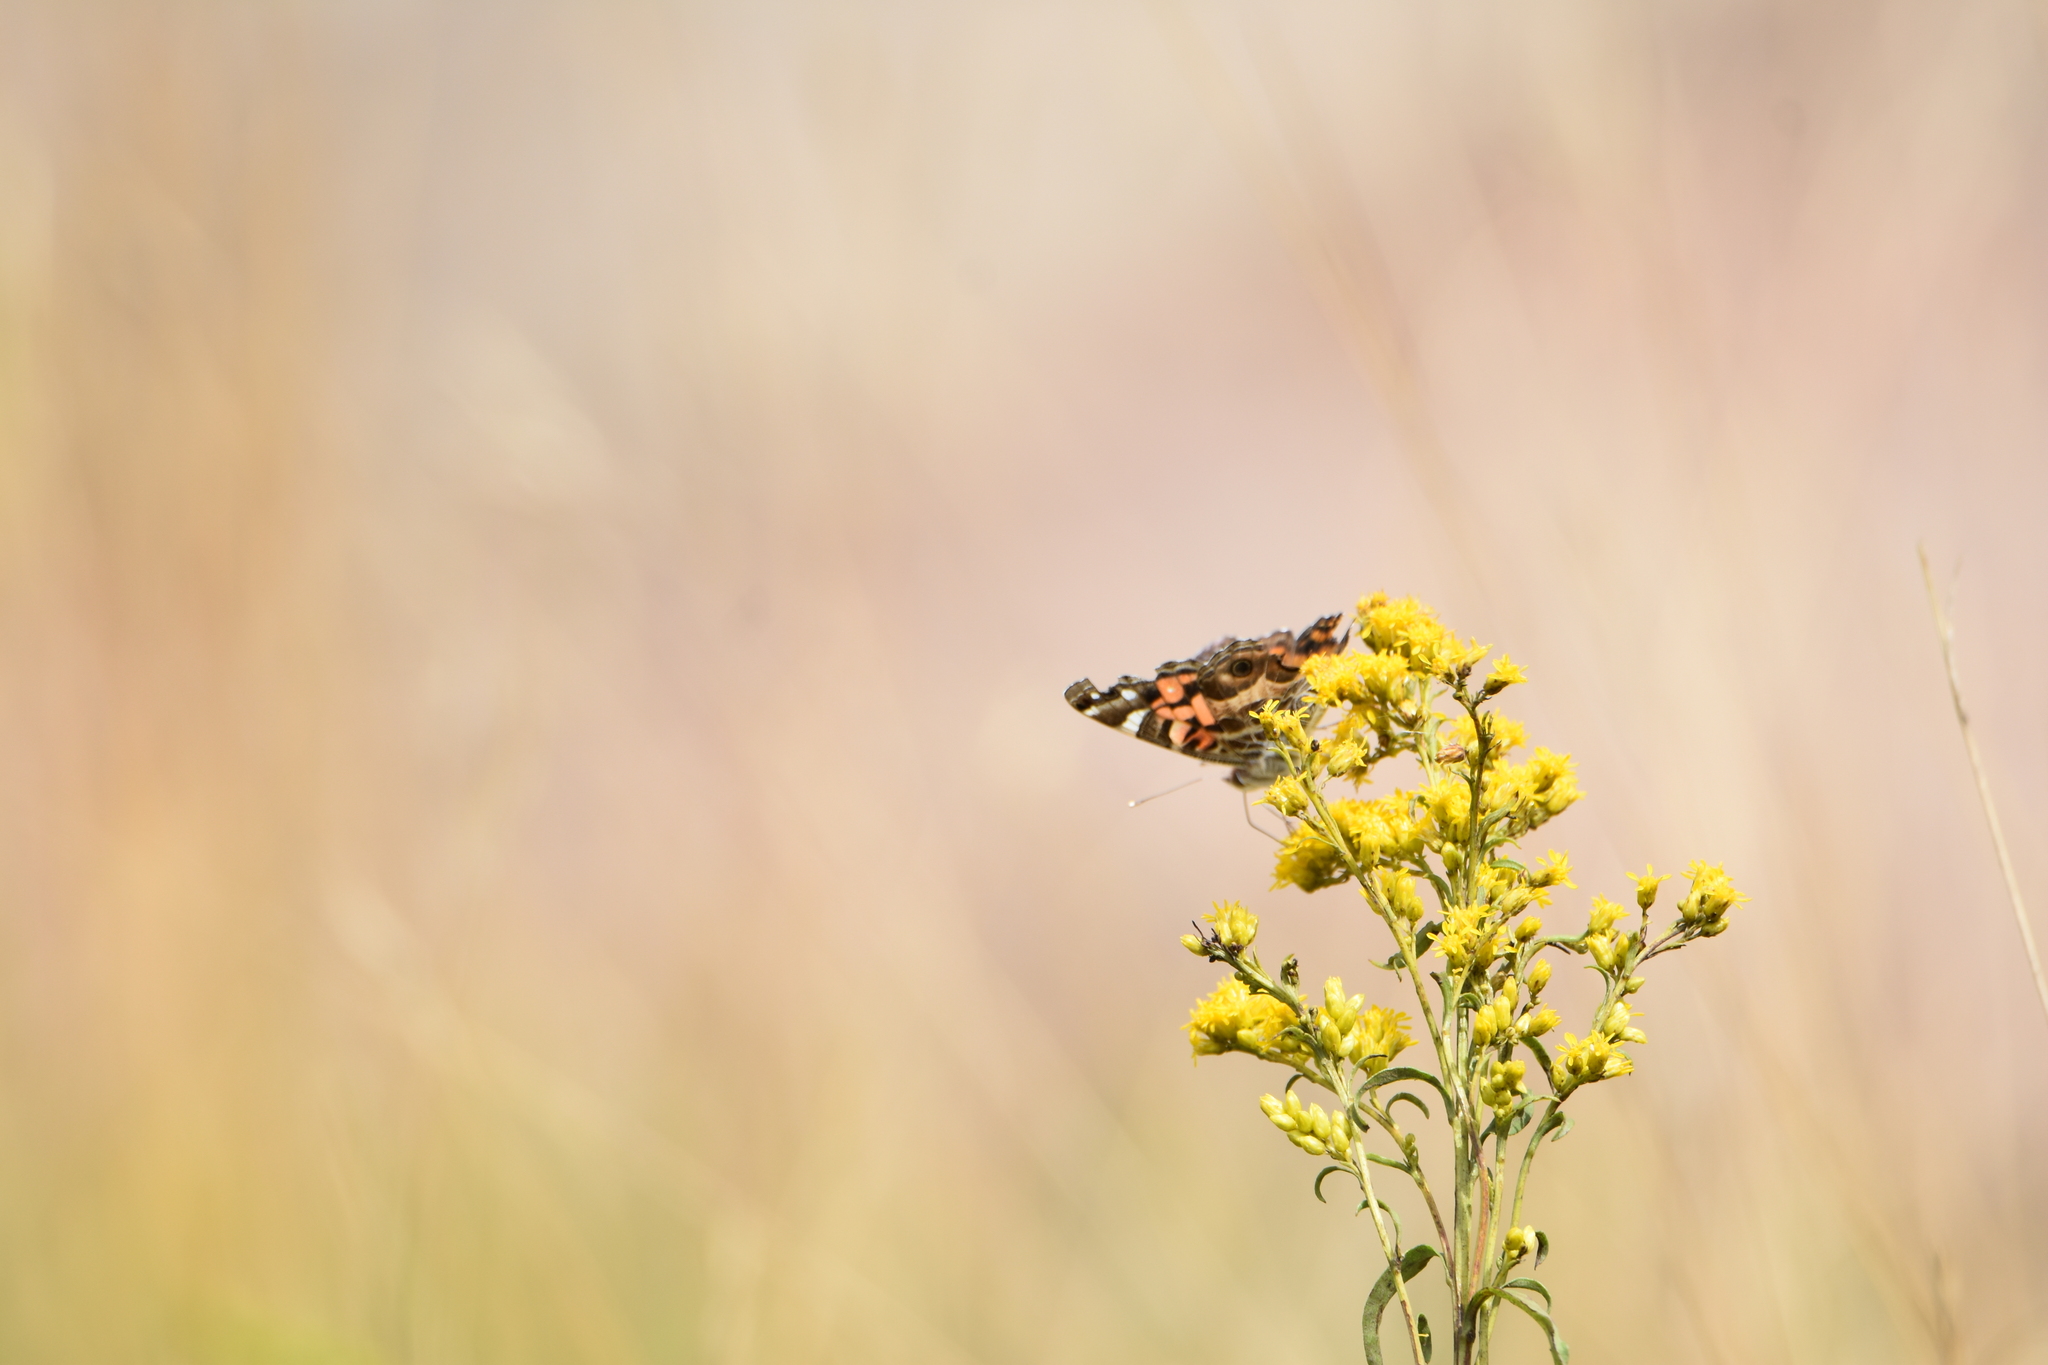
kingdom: Animalia
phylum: Arthropoda
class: Insecta
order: Lepidoptera
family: Nymphalidae
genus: Vanessa
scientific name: Vanessa virginiensis
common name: American lady
